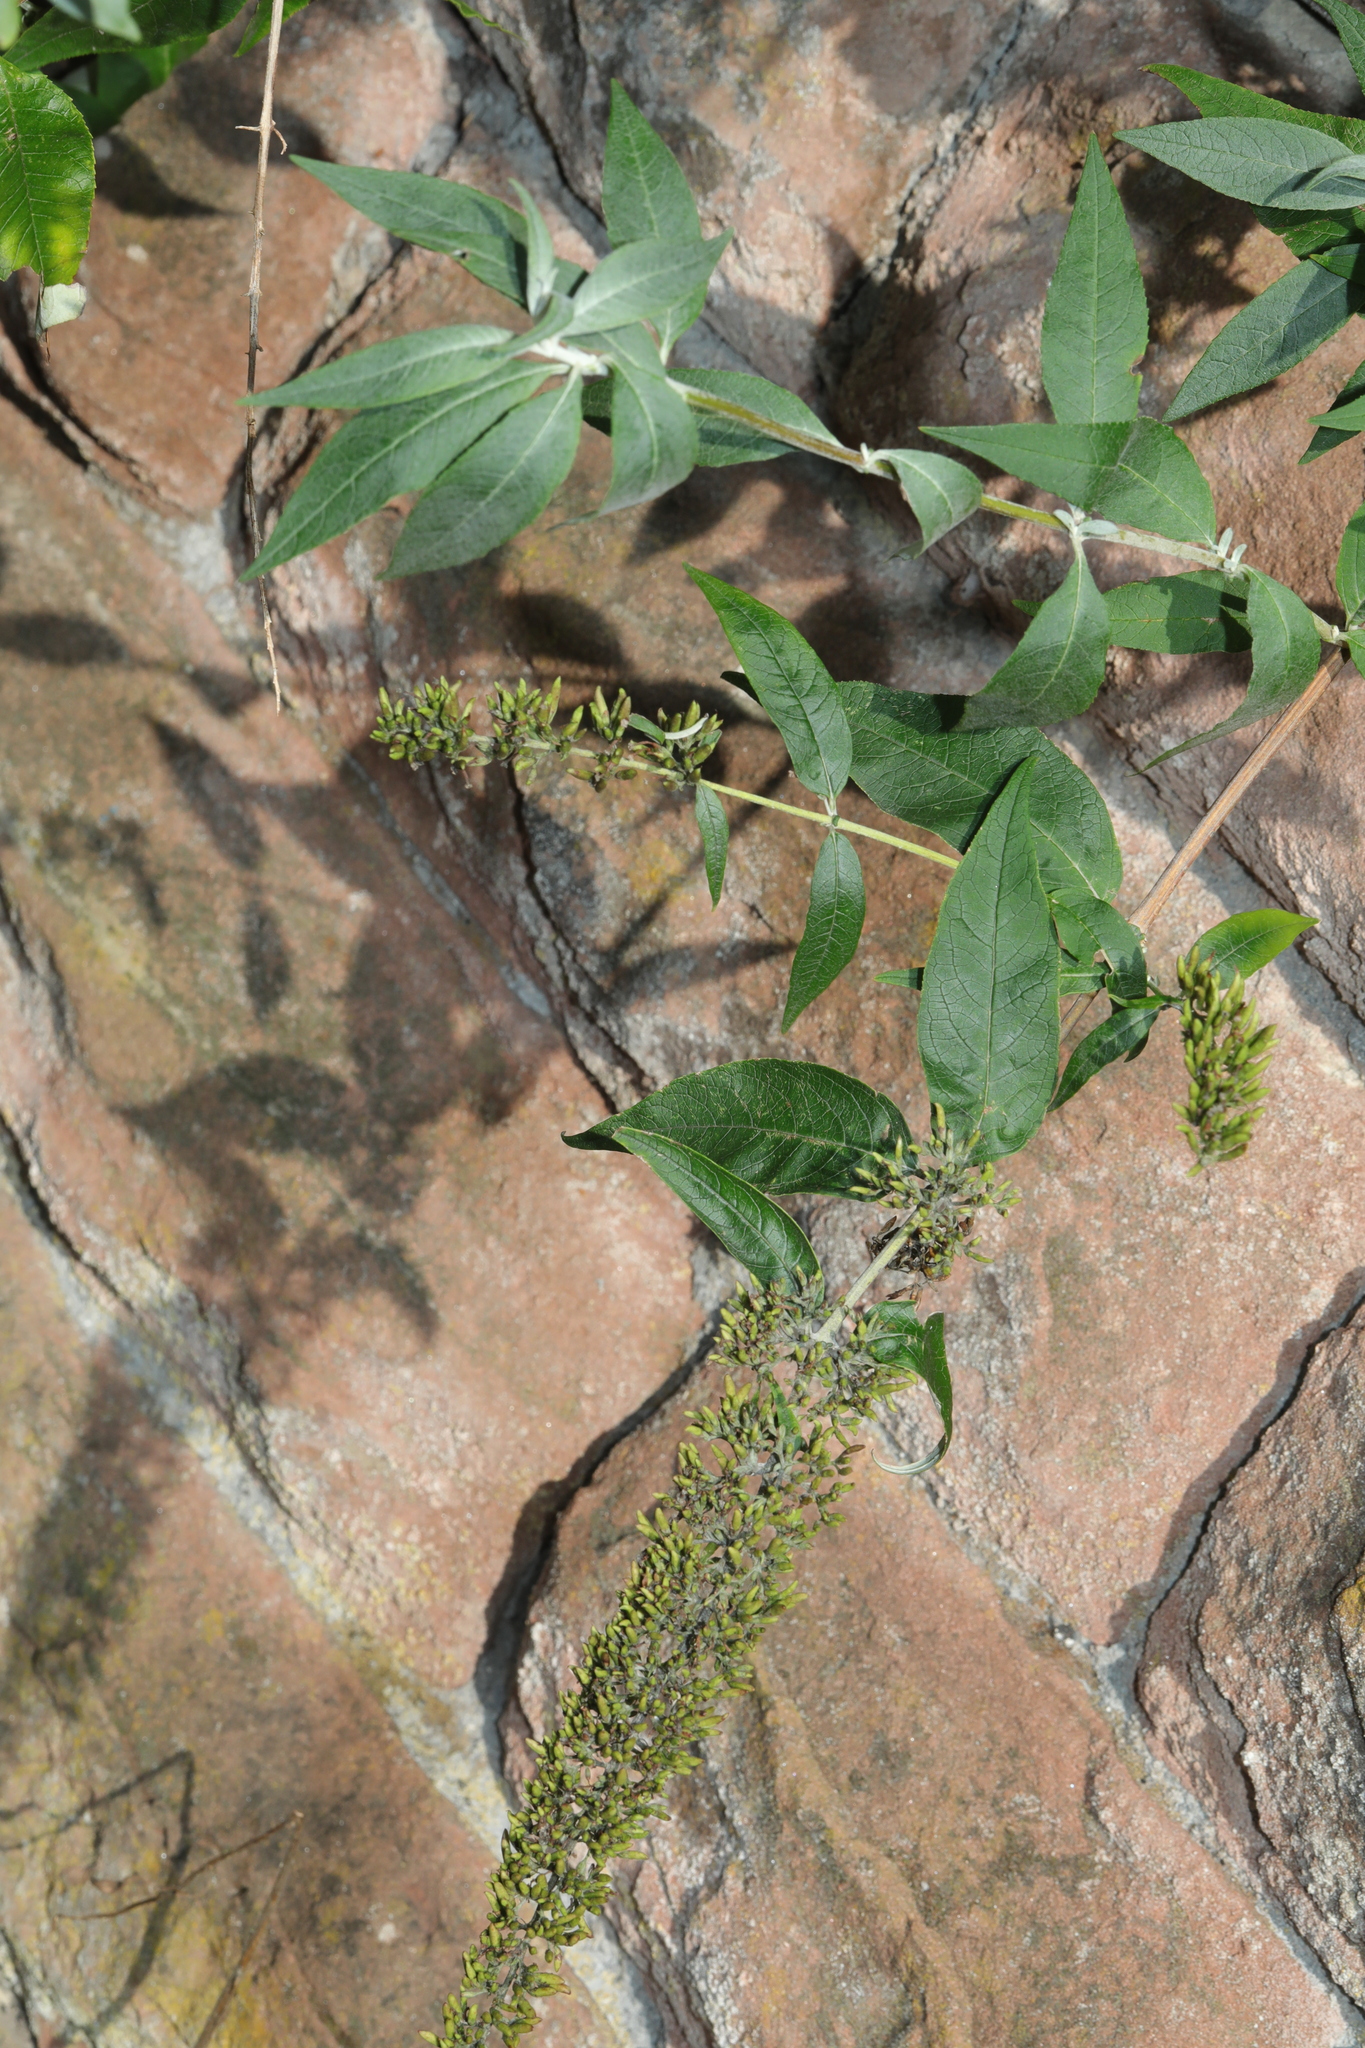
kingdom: Plantae
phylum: Tracheophyta
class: Magnoliopsida
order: Lamiales
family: Scrophulariaceae
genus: Buddleja
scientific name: Buddleja davidii
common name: Butterfly-bush
